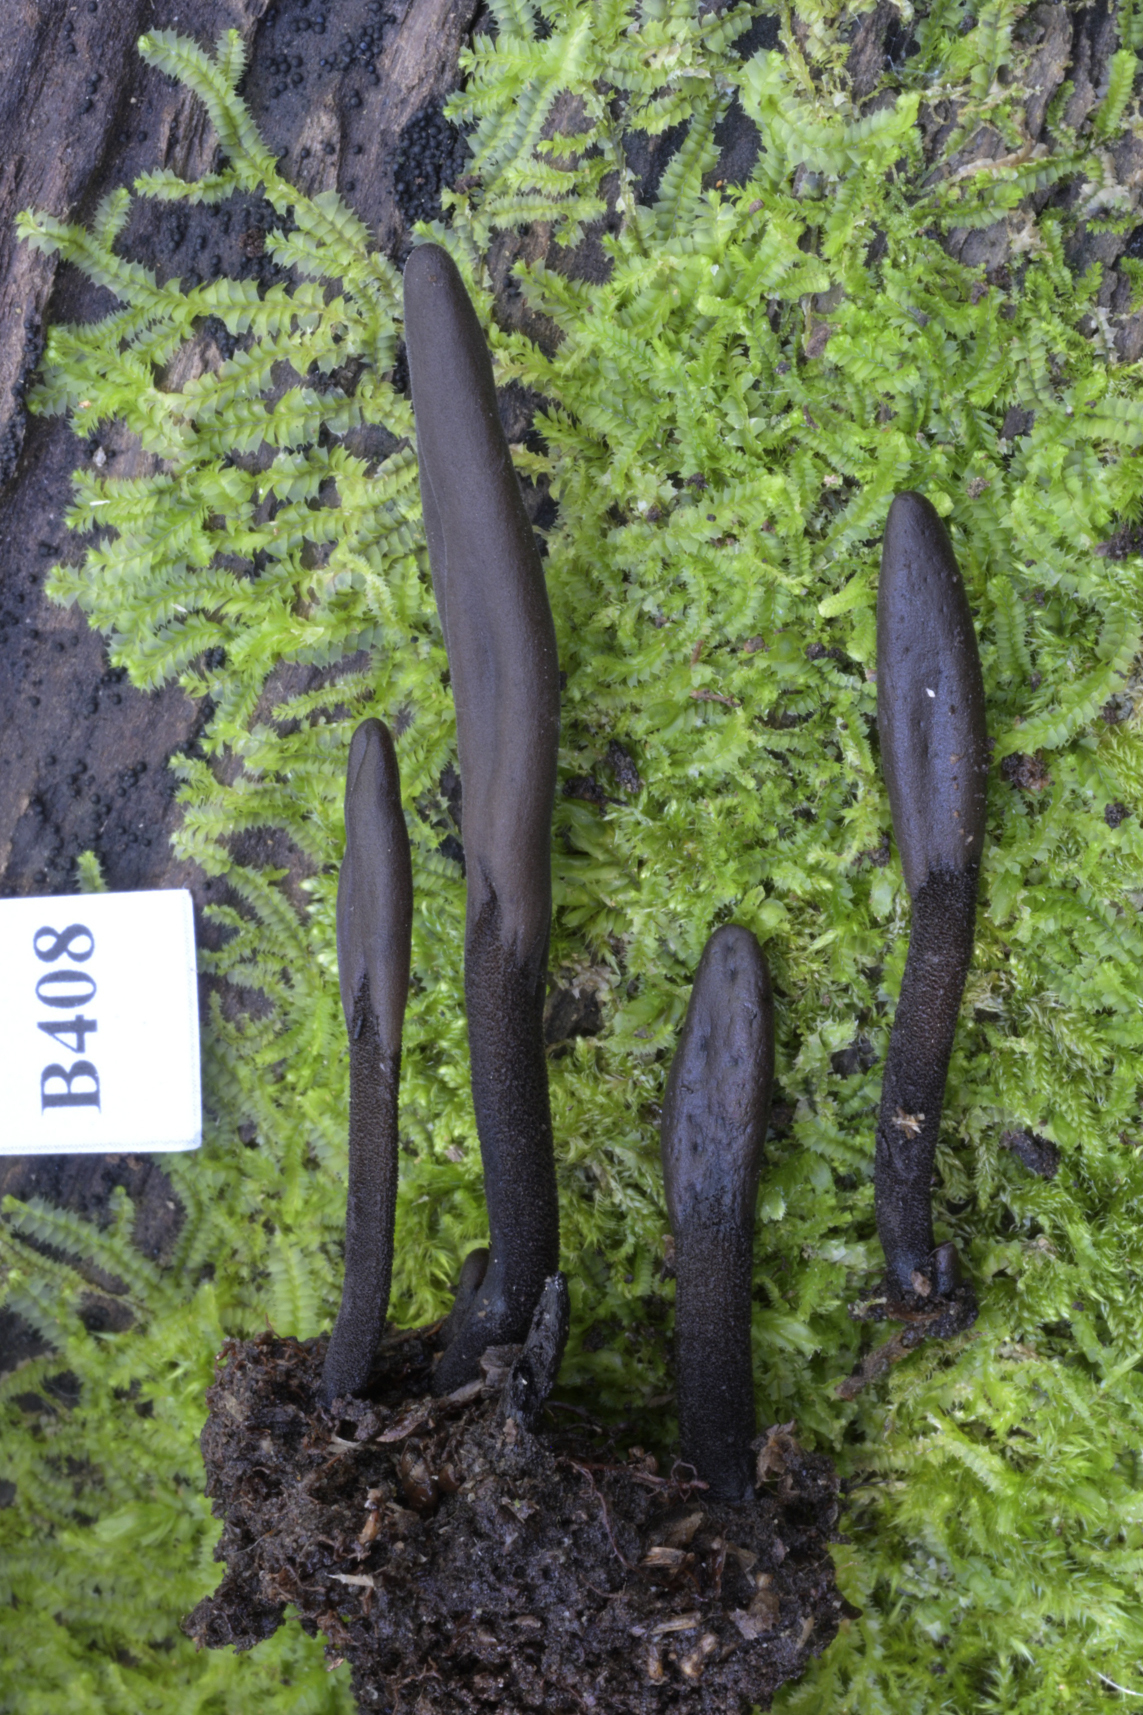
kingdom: Fungi
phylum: Ascomycota
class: Geoglossomycetes
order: Geoglossales
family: Geoglossaceae
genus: Geoglossum
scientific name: Geoglossum fallax
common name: Deceptive earthtongue
